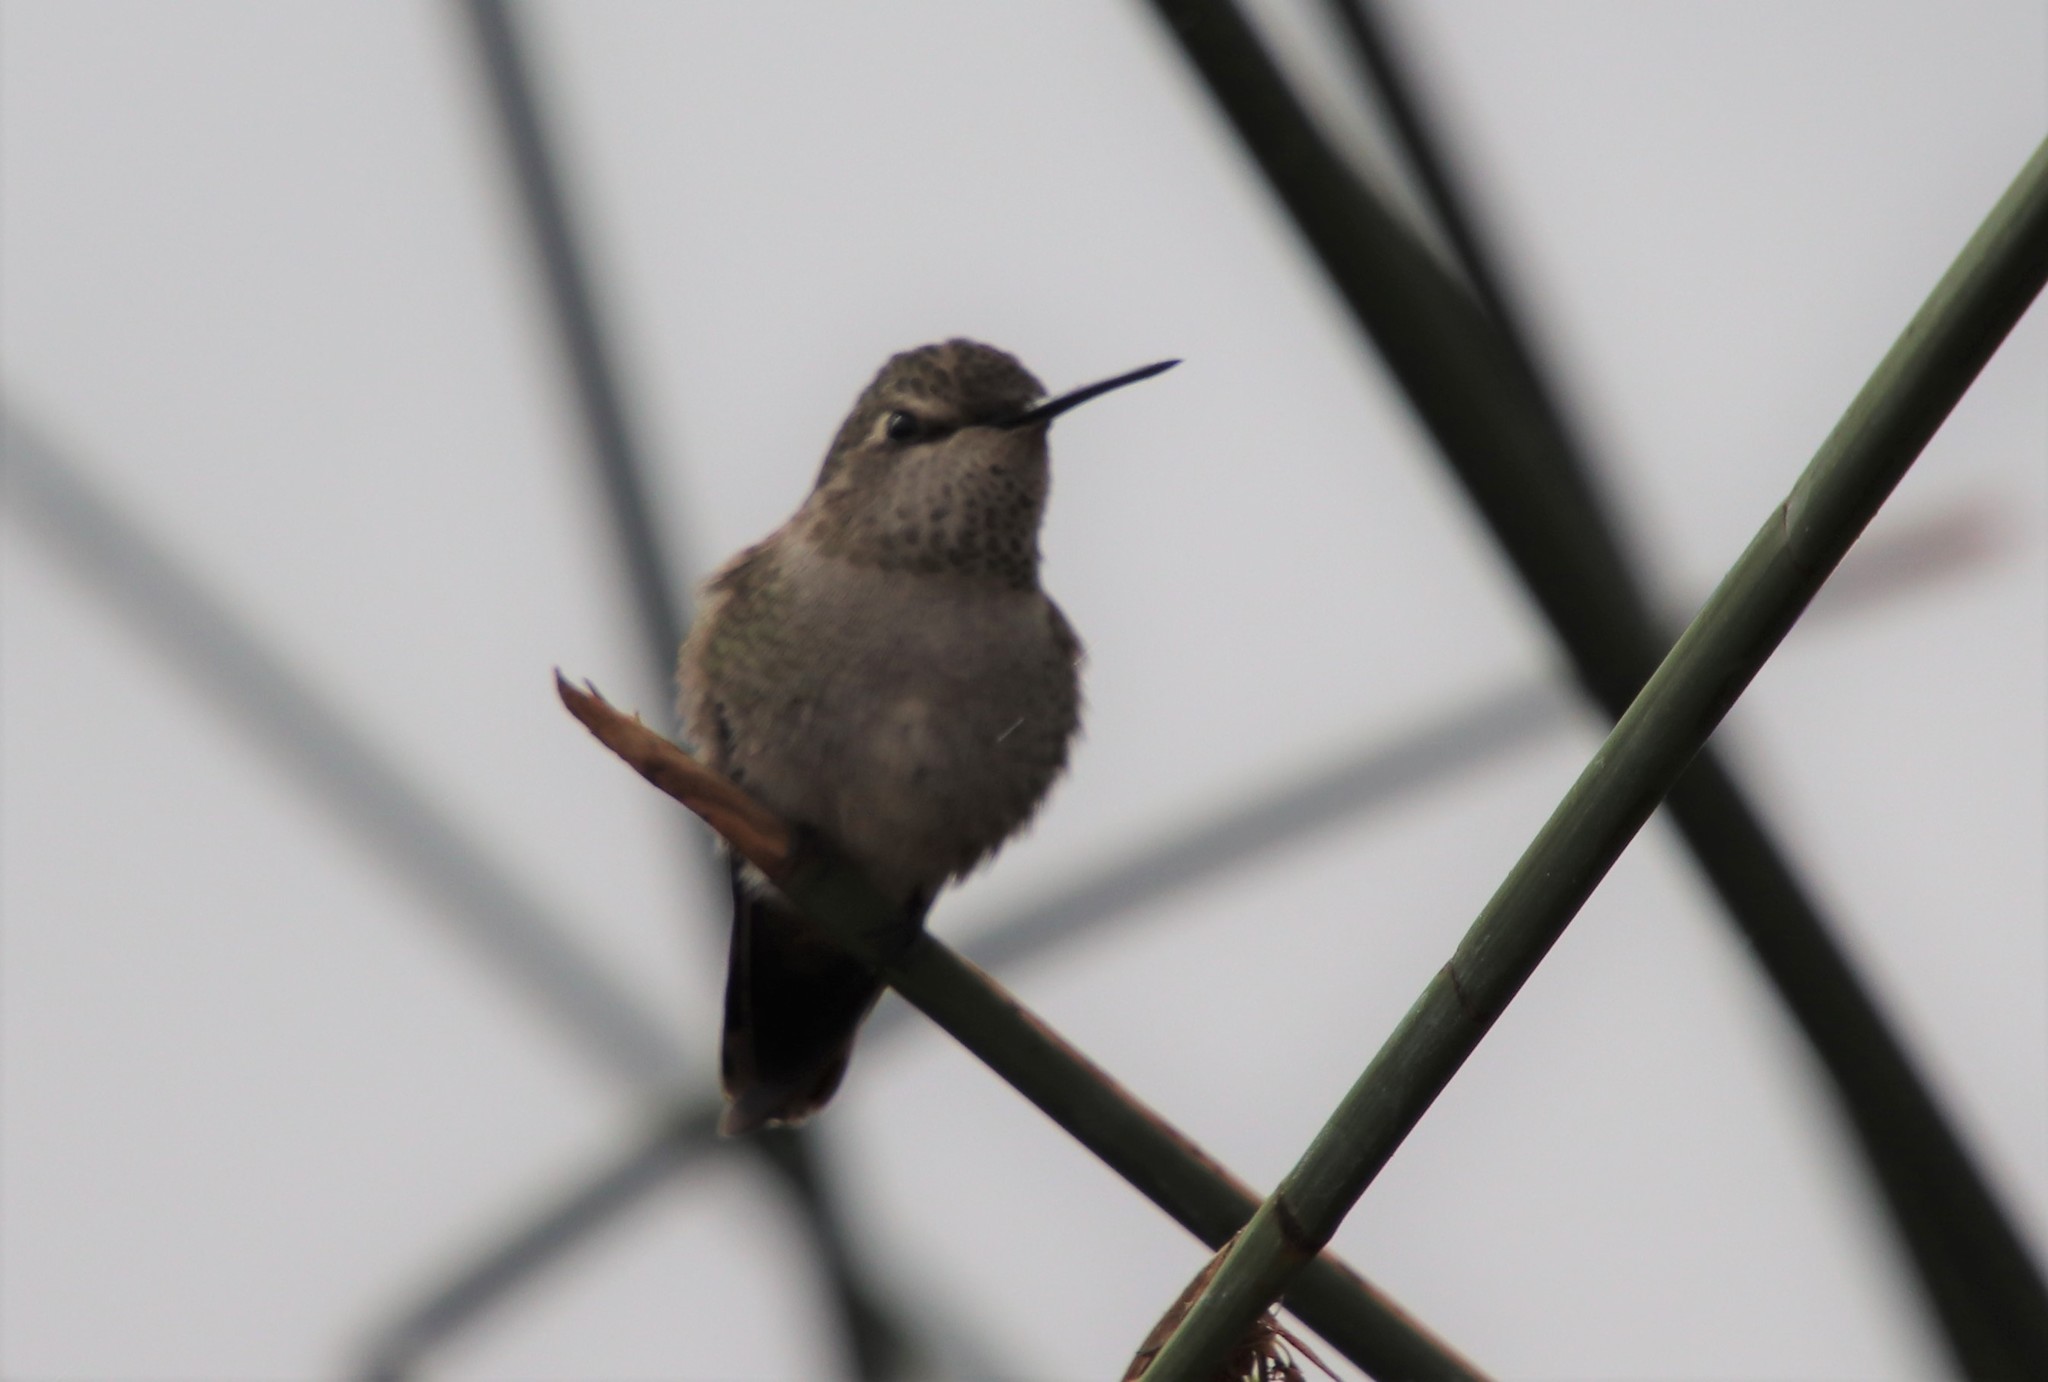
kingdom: Animalia
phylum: Chordata
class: Aves
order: Apodiformes
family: Trochilidae
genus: Calypte
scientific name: Calypte anna
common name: Anna's hummingbird
